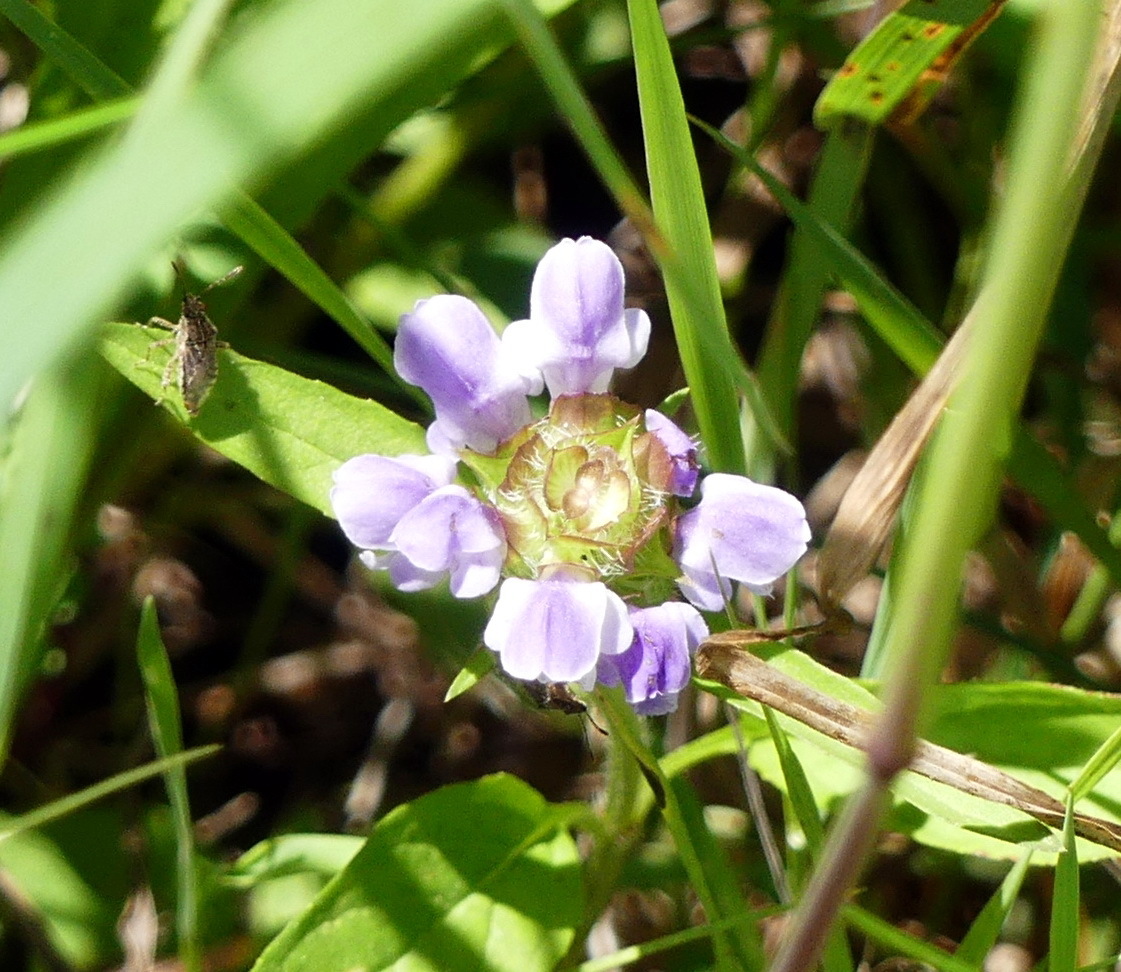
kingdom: Plantae
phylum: Tracheophyta
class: Magnoliopsida
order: Lamiales
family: Lamiaceae
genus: Prunella
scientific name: Prunella vulgaris
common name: Heal-all
